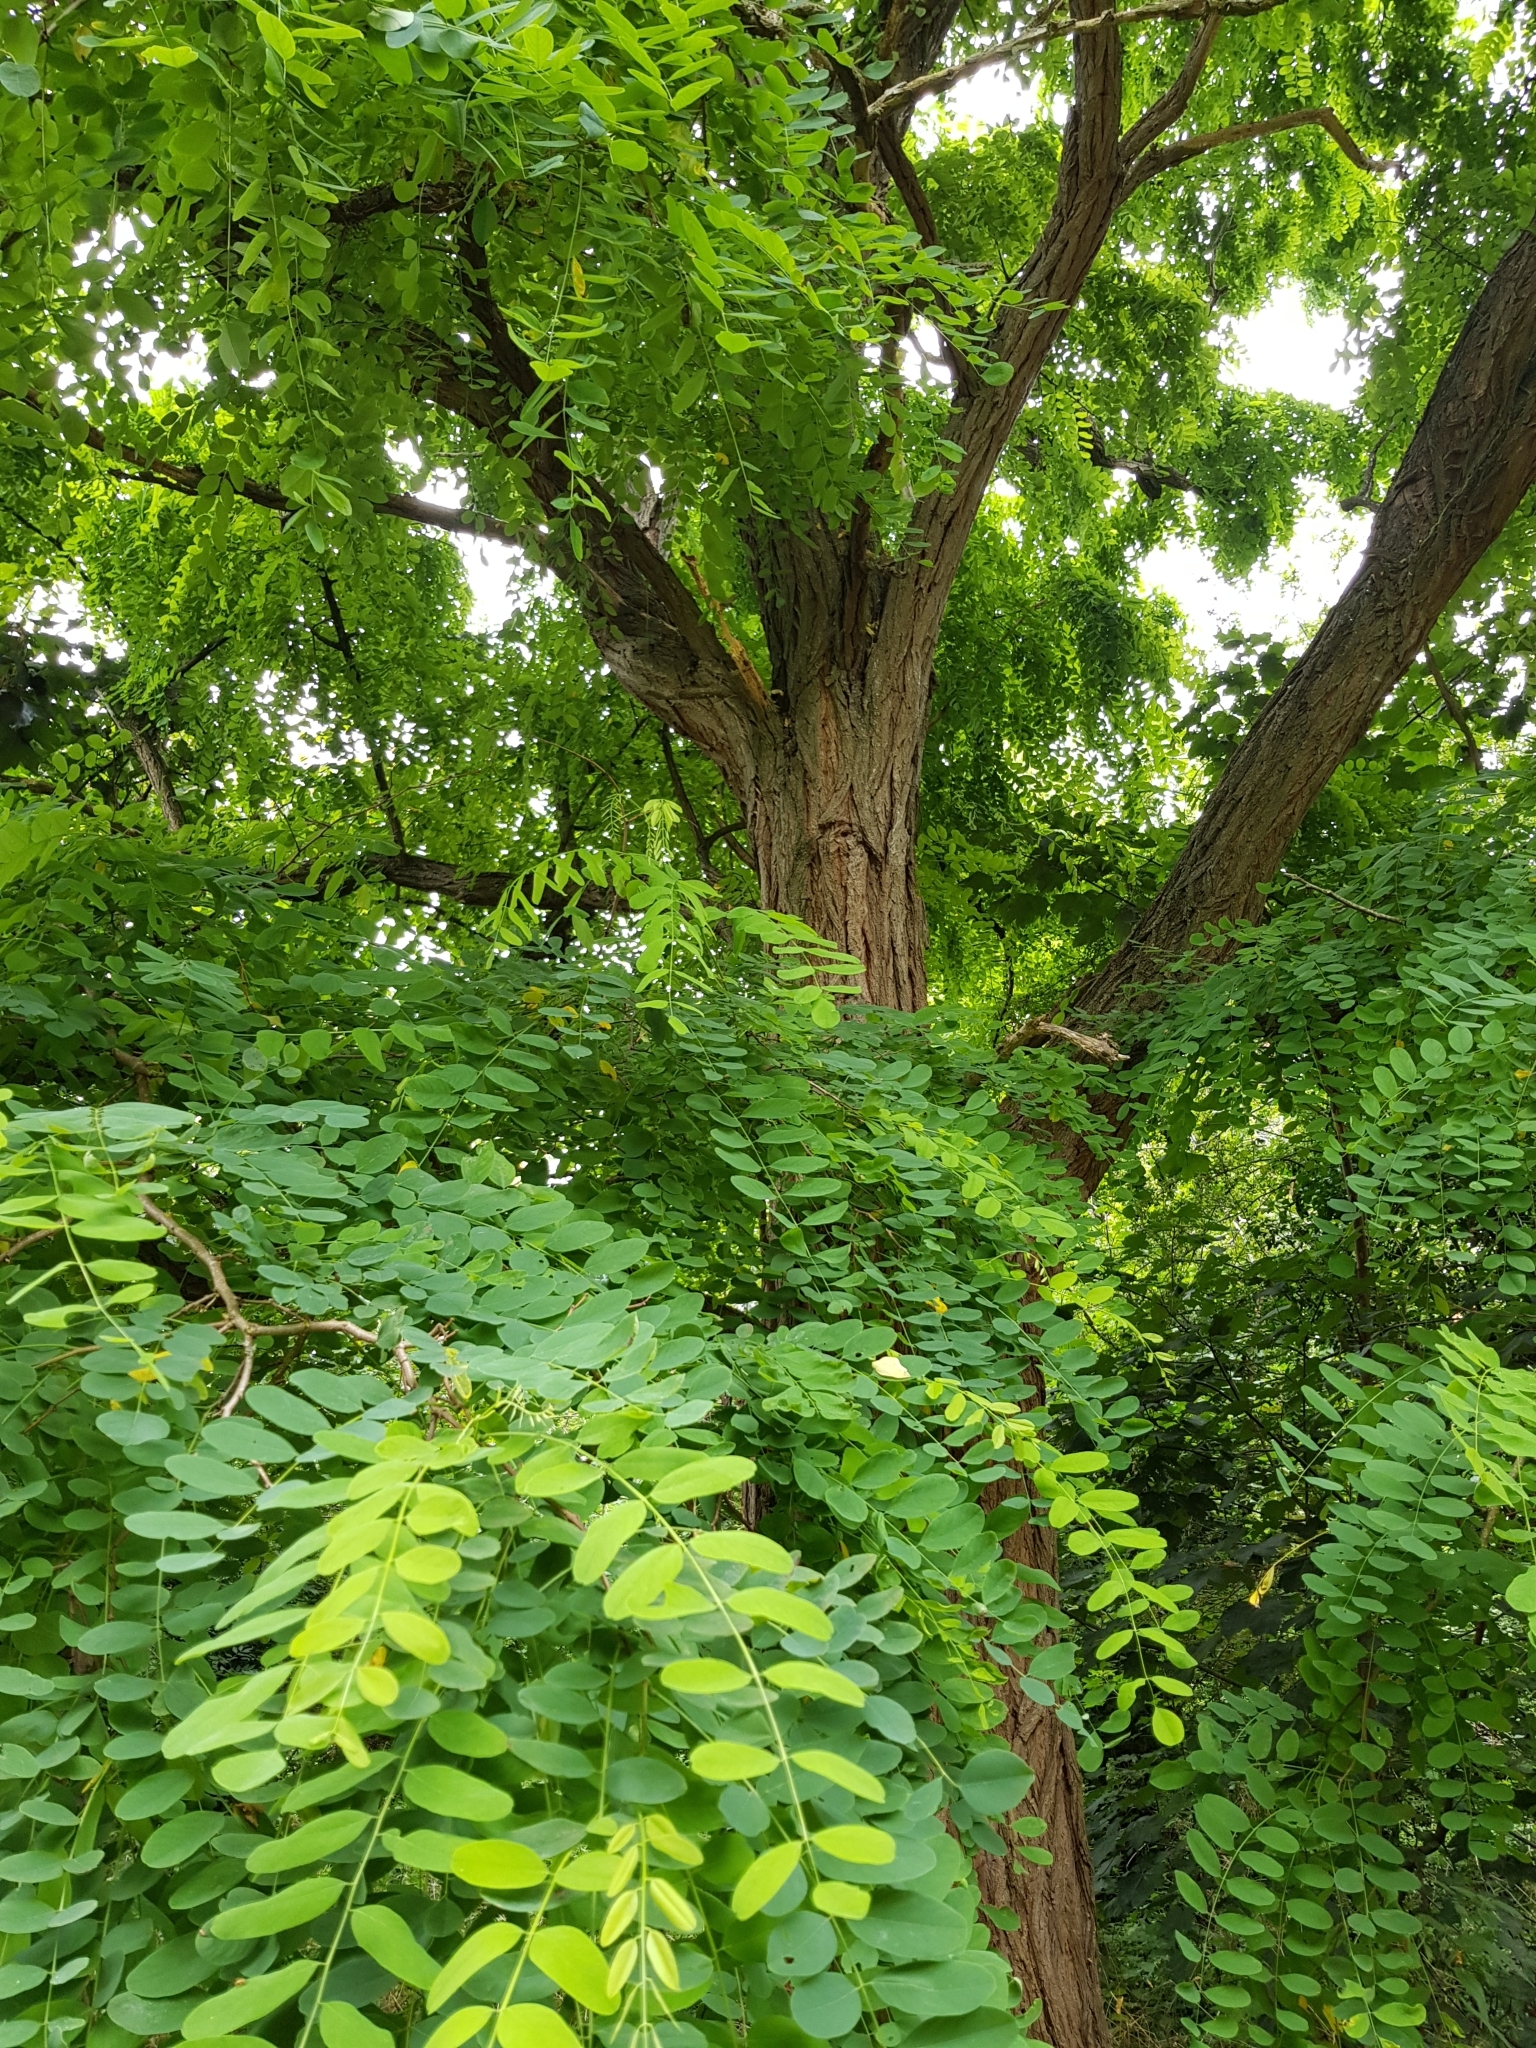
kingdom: Plantae
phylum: Tracheophyta
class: Magnoliopsida
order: Fabales
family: Fabaceae
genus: Robinia
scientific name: Robinia pseudoacacia
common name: Black locust
